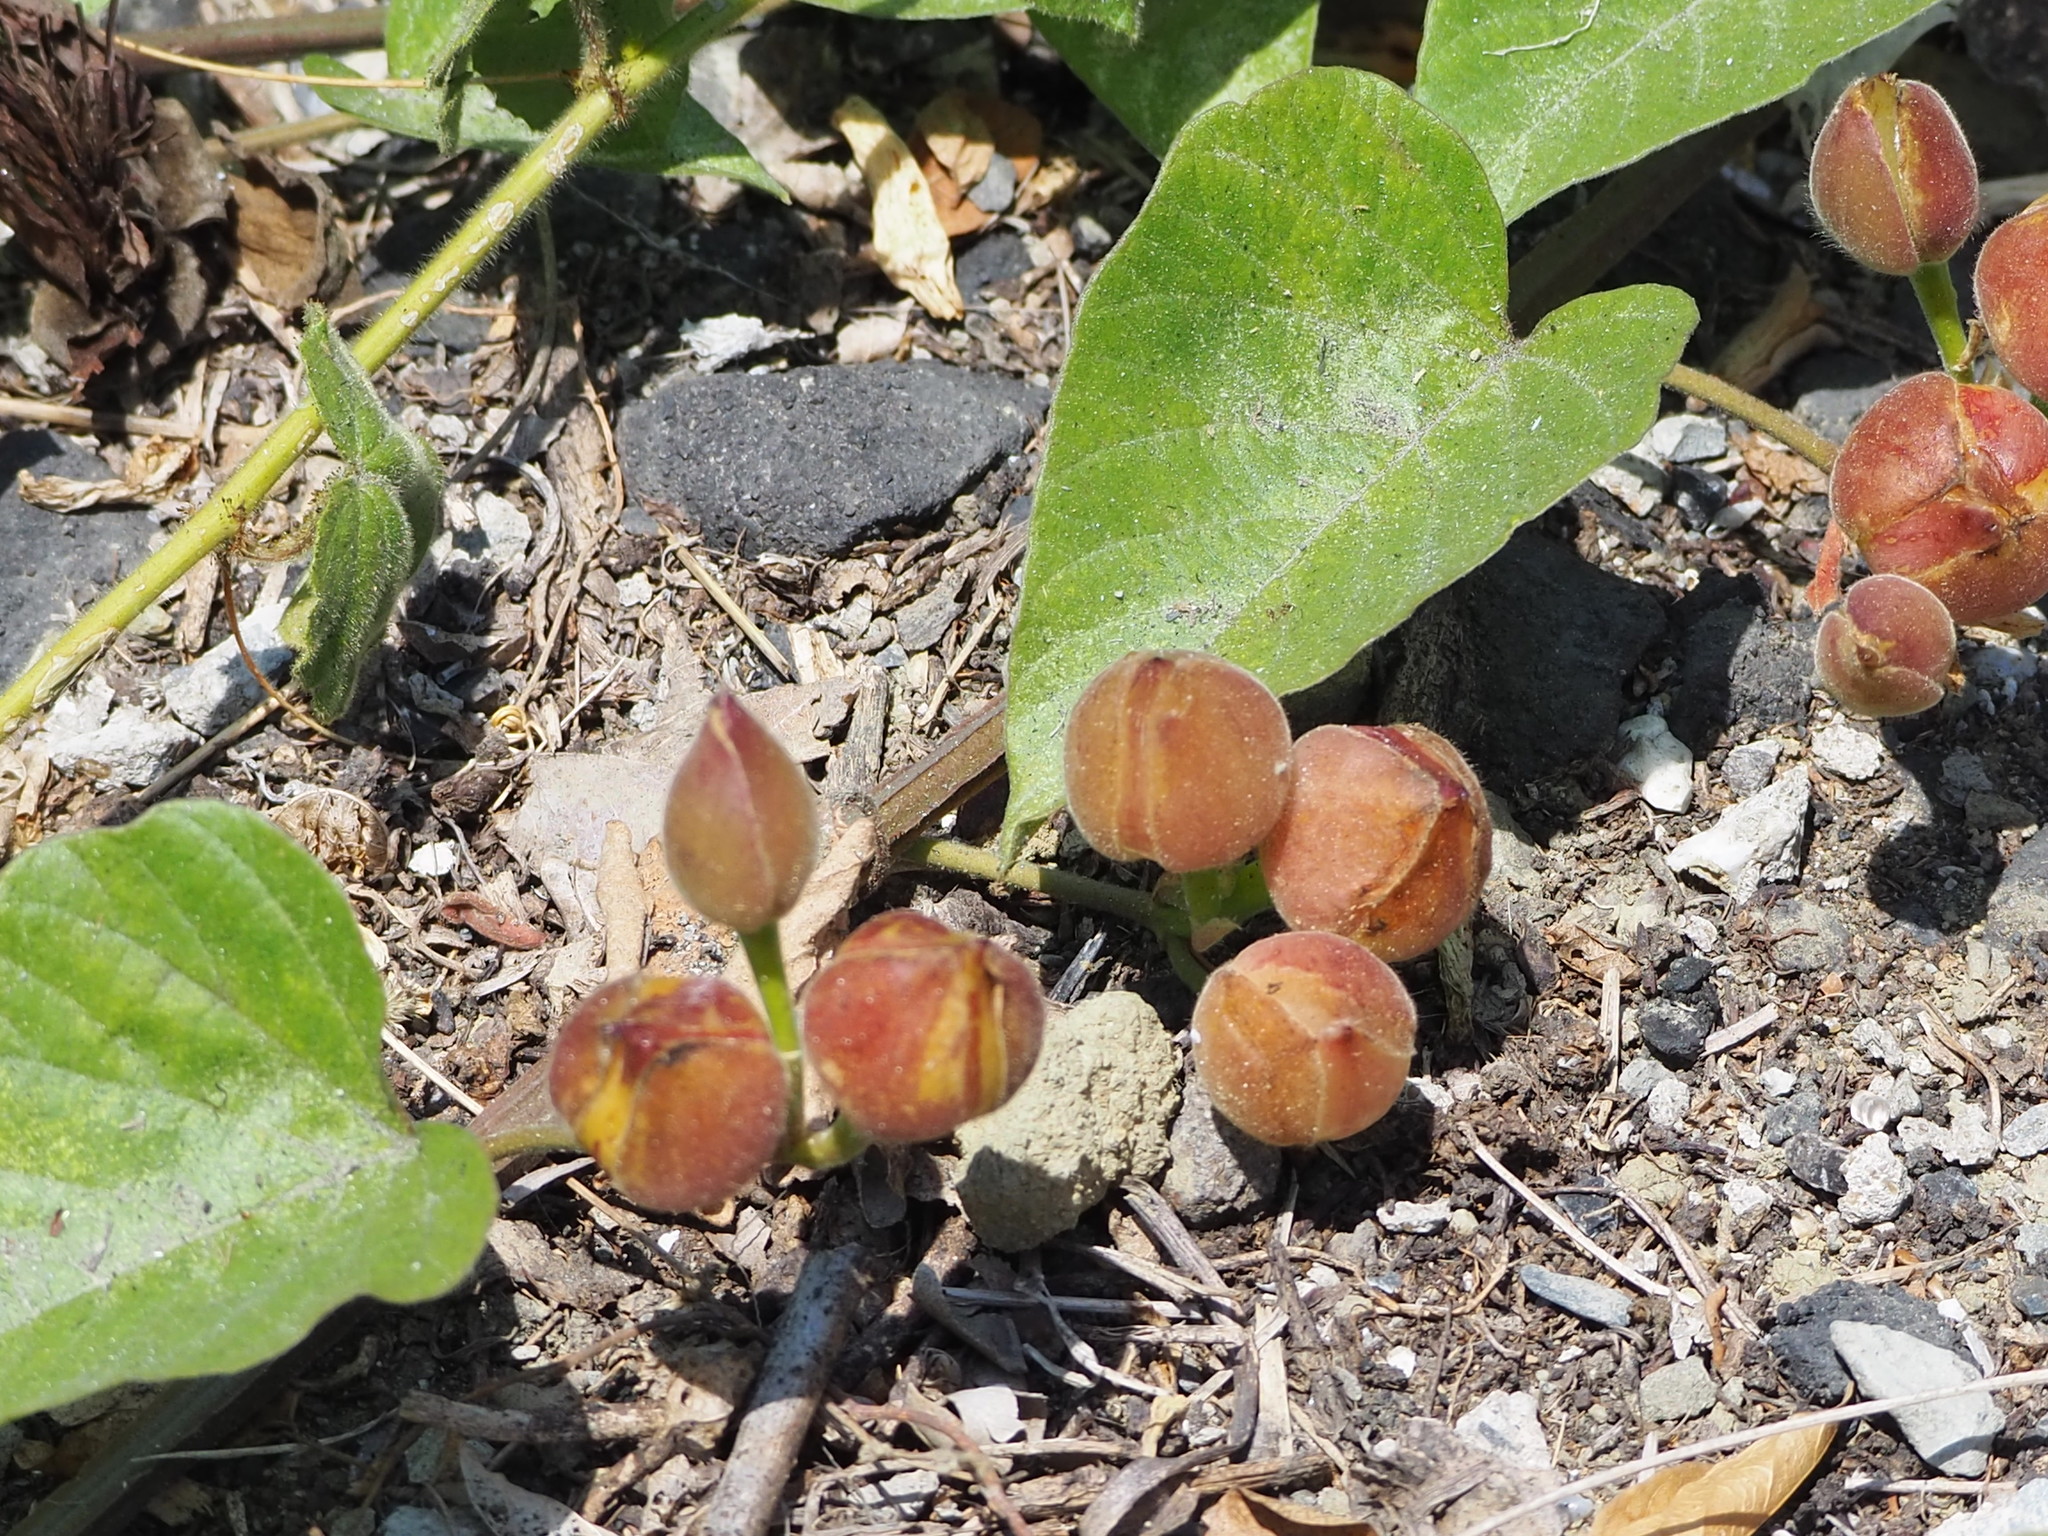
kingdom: Plantae
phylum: Tracheophyta
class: Magnoliopsida
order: Solanales
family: Convolvulaceae
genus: Operculina
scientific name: Operculina turpethum
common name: Transparent wood-rose
